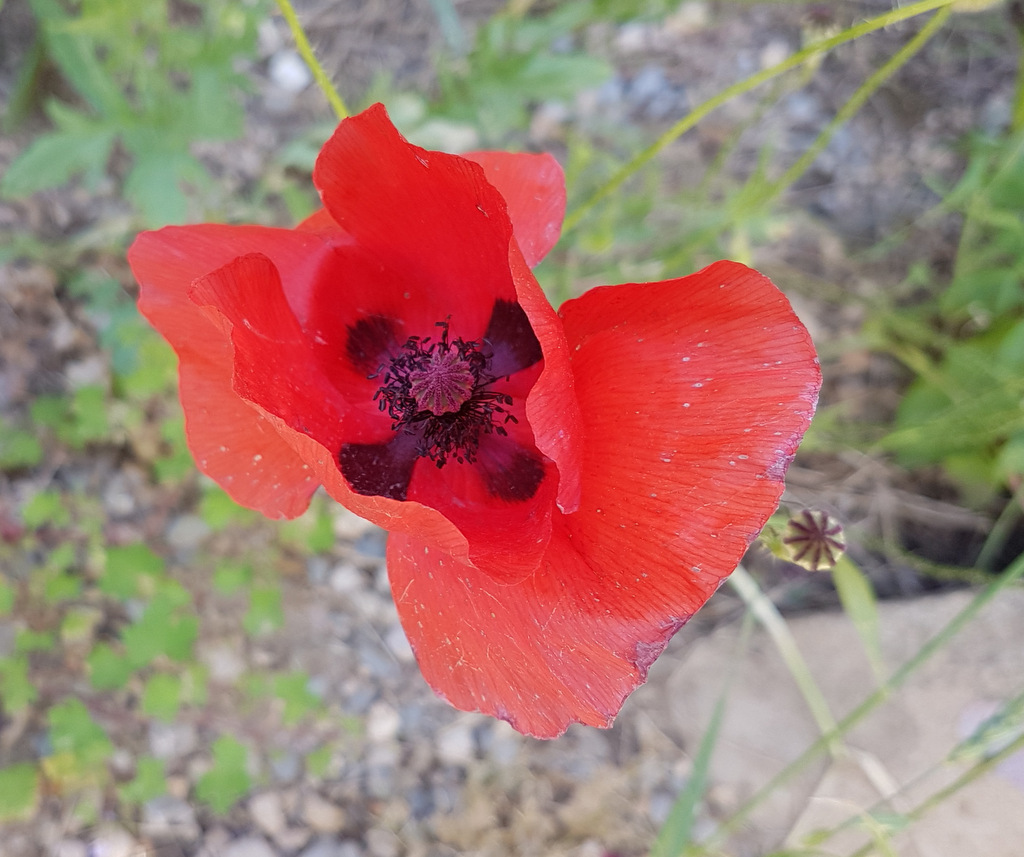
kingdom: Plantae
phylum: Tracheophyta
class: Magnoliopsida
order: Ranunculales
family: Papaveraceae
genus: Papaver
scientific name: Papaver rhoeas
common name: Corn poppy
